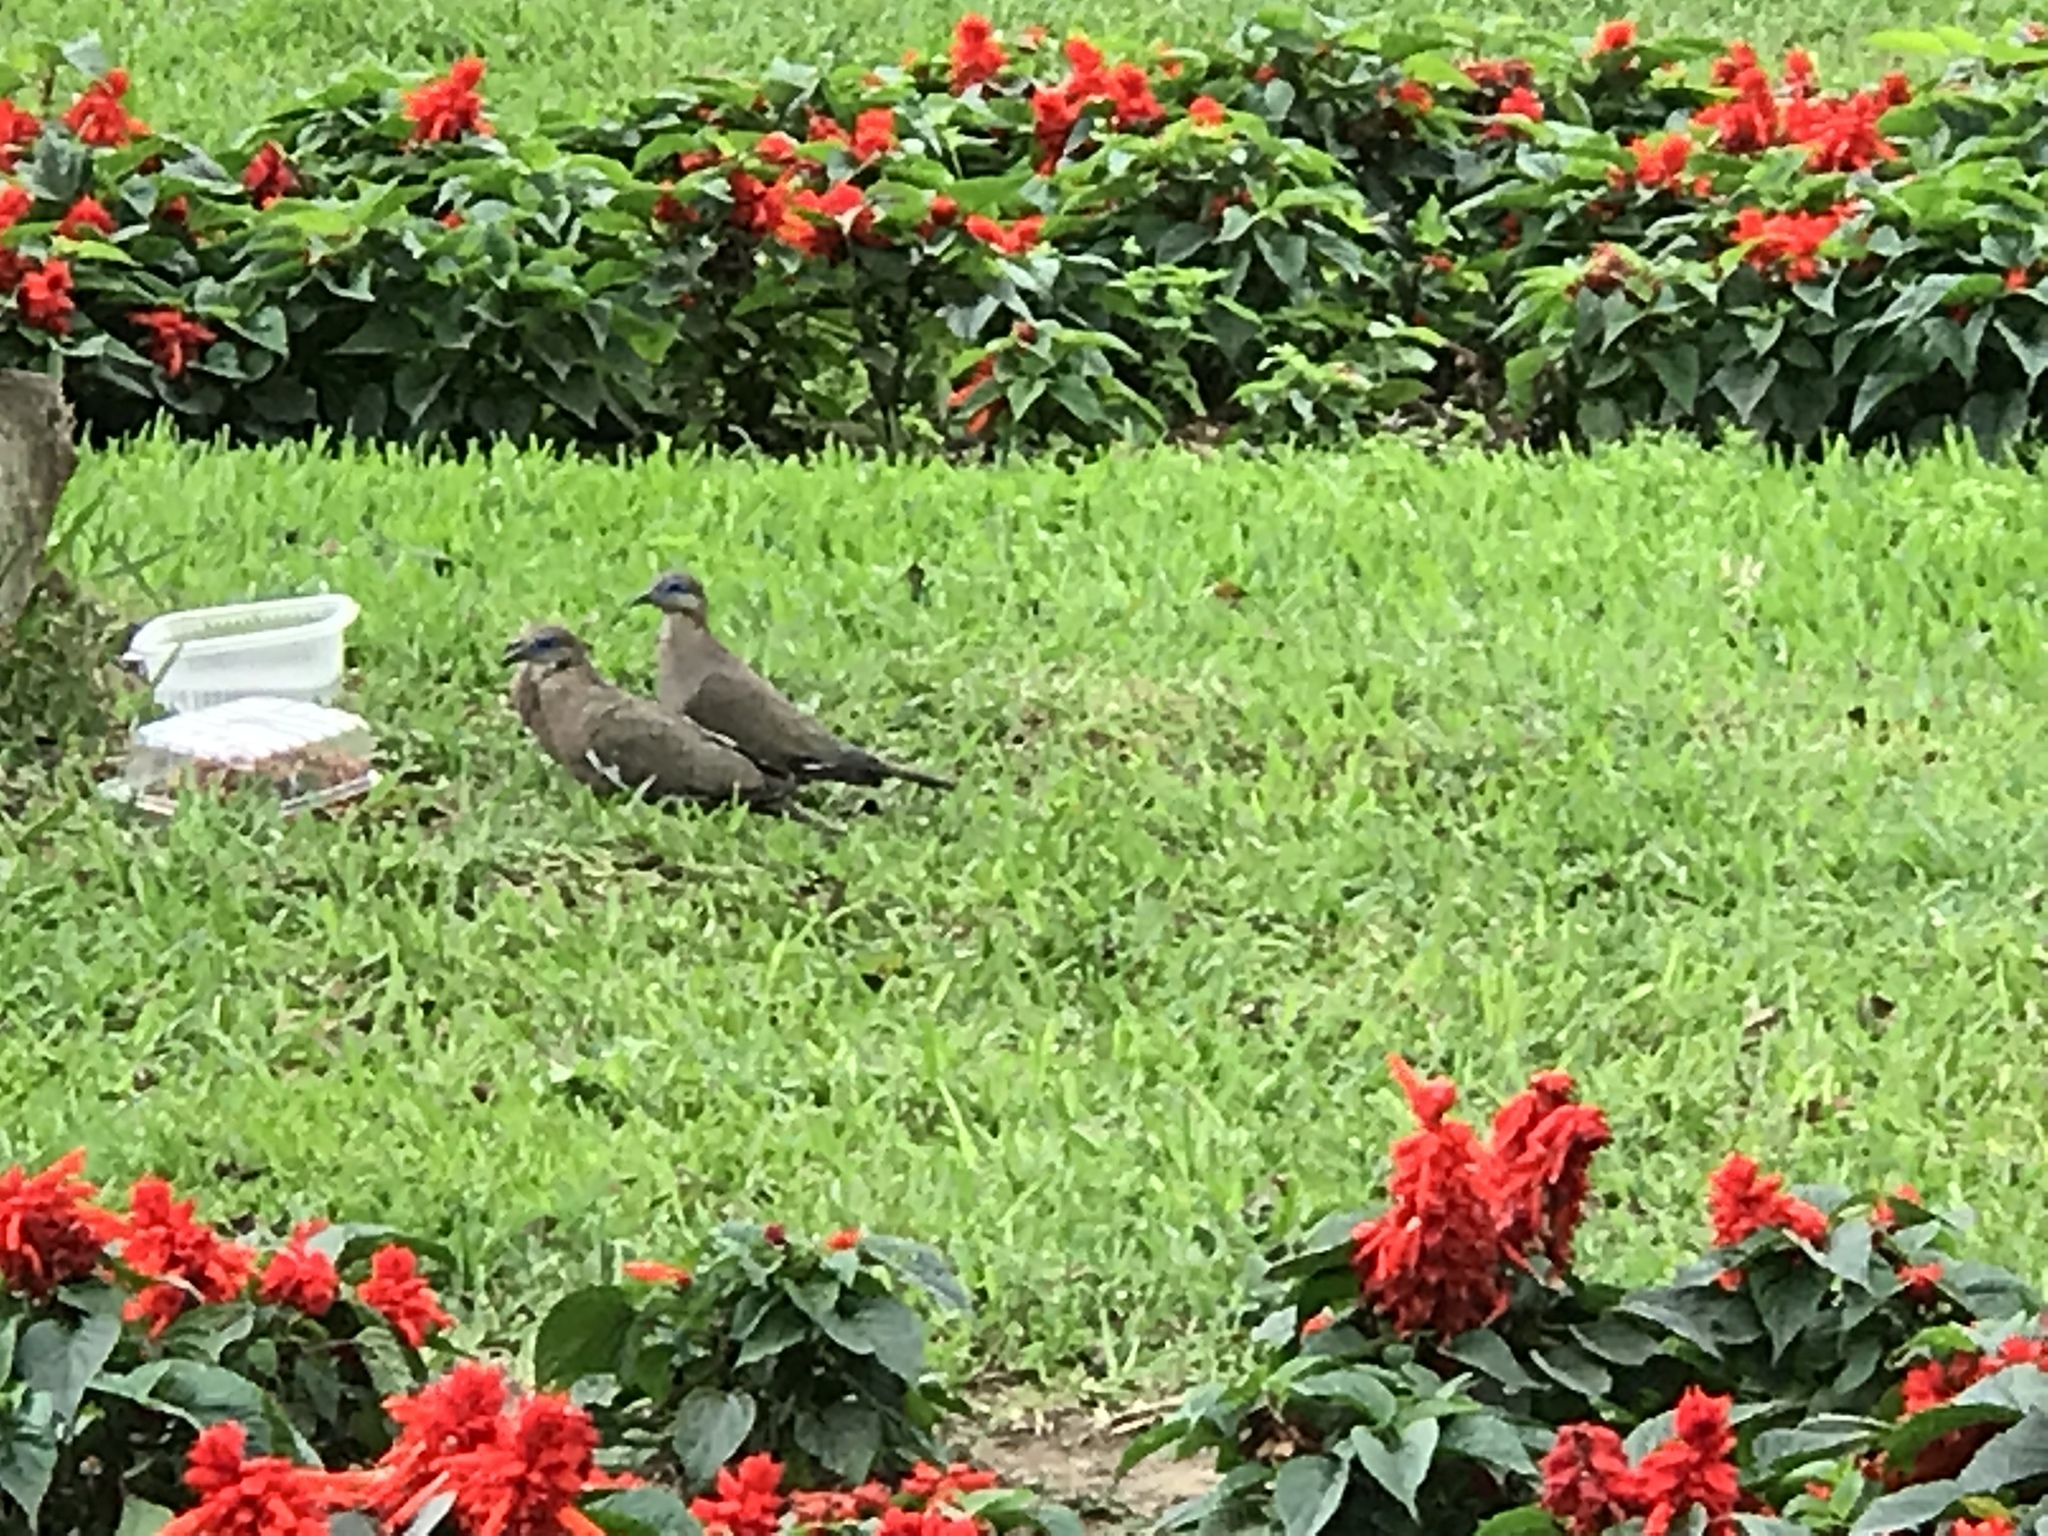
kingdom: Animalia
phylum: Chordata
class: Aves
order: Columbiformes
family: Columbidae
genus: Zenaida
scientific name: Zenaida meloda
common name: West peruvian dove
